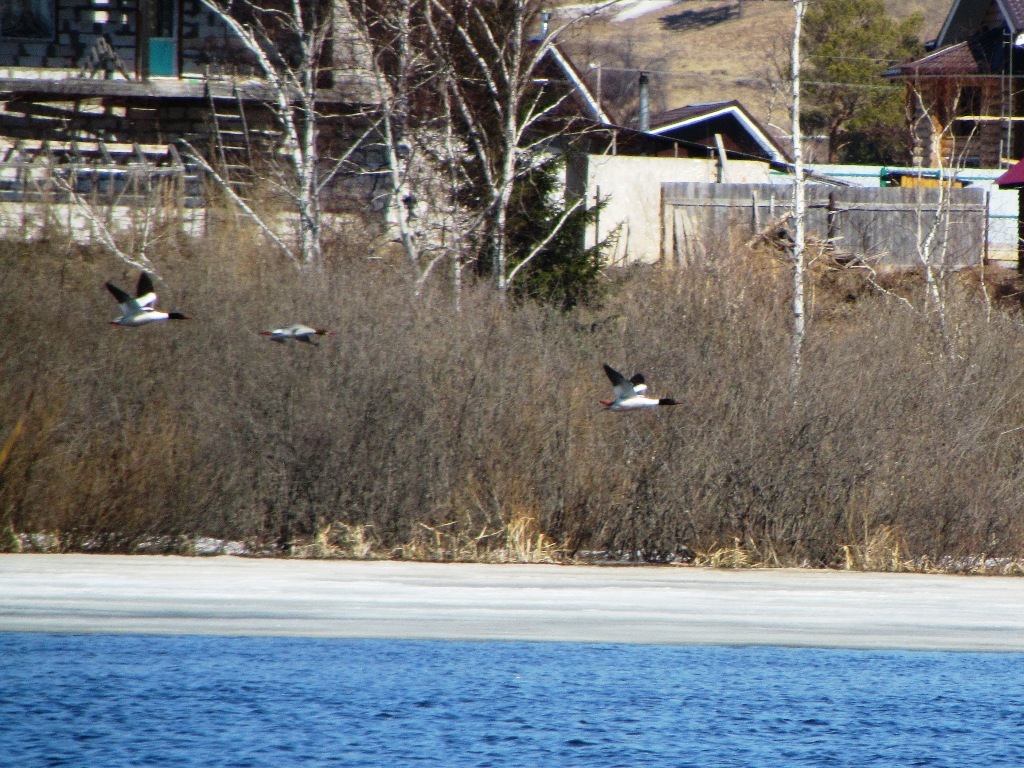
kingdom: Animalia
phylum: Chordata
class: Aves
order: Anseriformes
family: Anatidae
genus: Mergus
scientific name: Mergus merganser
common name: Common merganser
